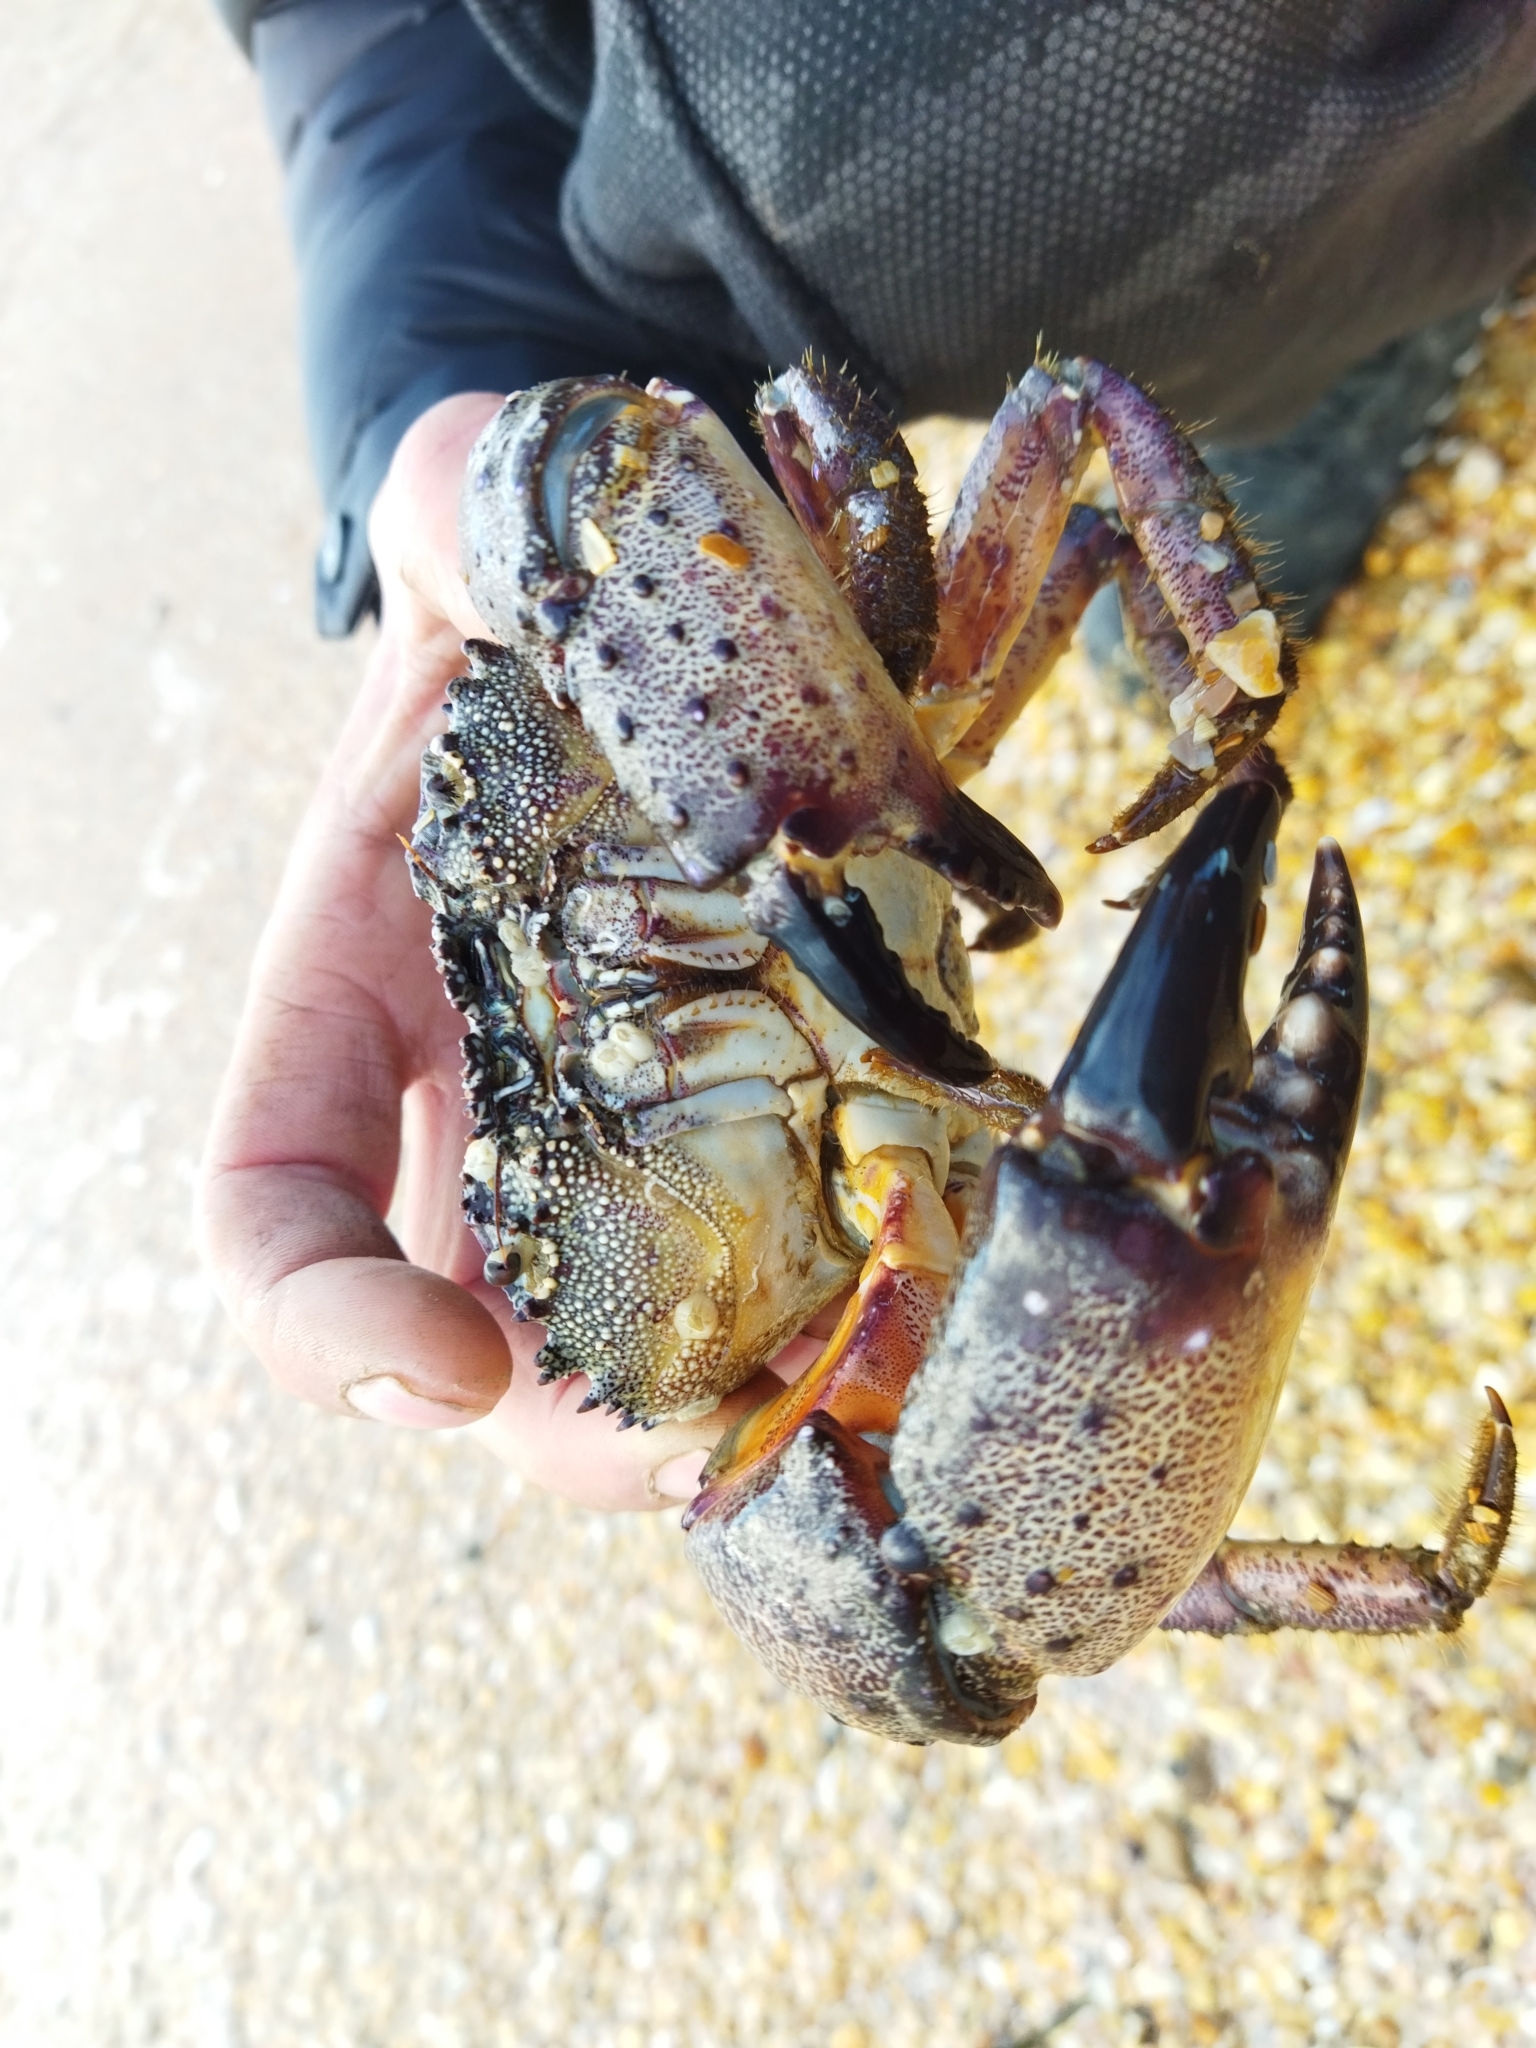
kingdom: Animalia
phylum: Arthropoda
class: Malacostraca
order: Decapoda
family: Eriphiidae
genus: Eriphia
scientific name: Eriphia verrucosa
